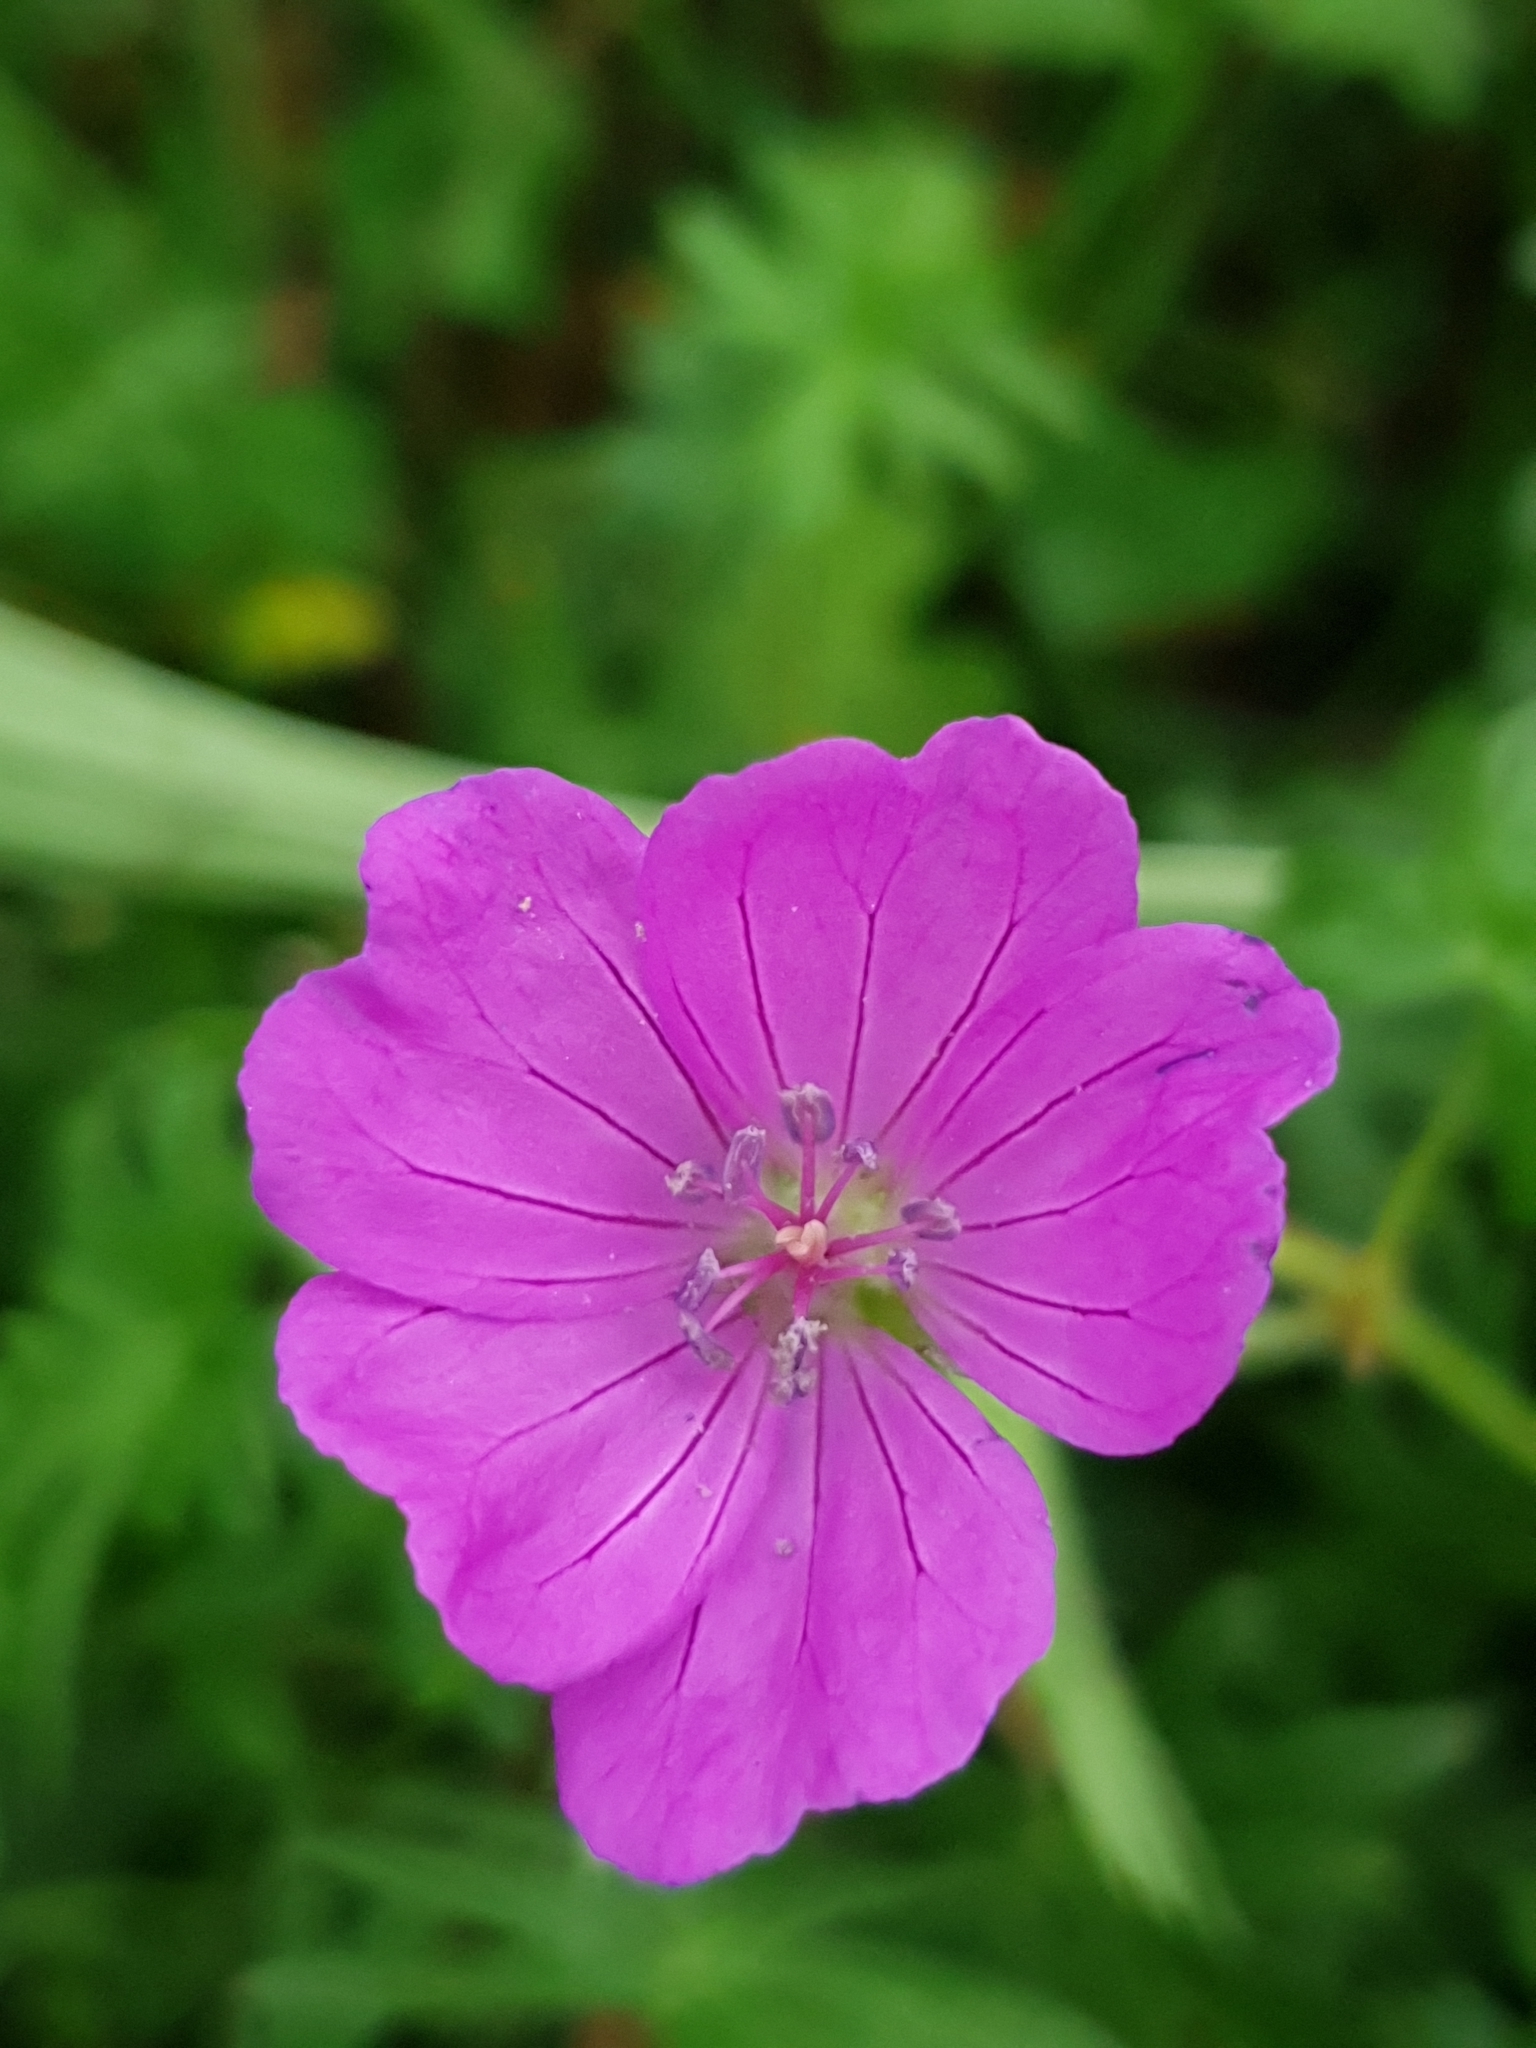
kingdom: Plantae
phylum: Tracheophyta
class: Magnoliopsida
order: Geraniales
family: Geraniaceae
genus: Geranium
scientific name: Geranium sanguineum
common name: Bloody crane's-bill
